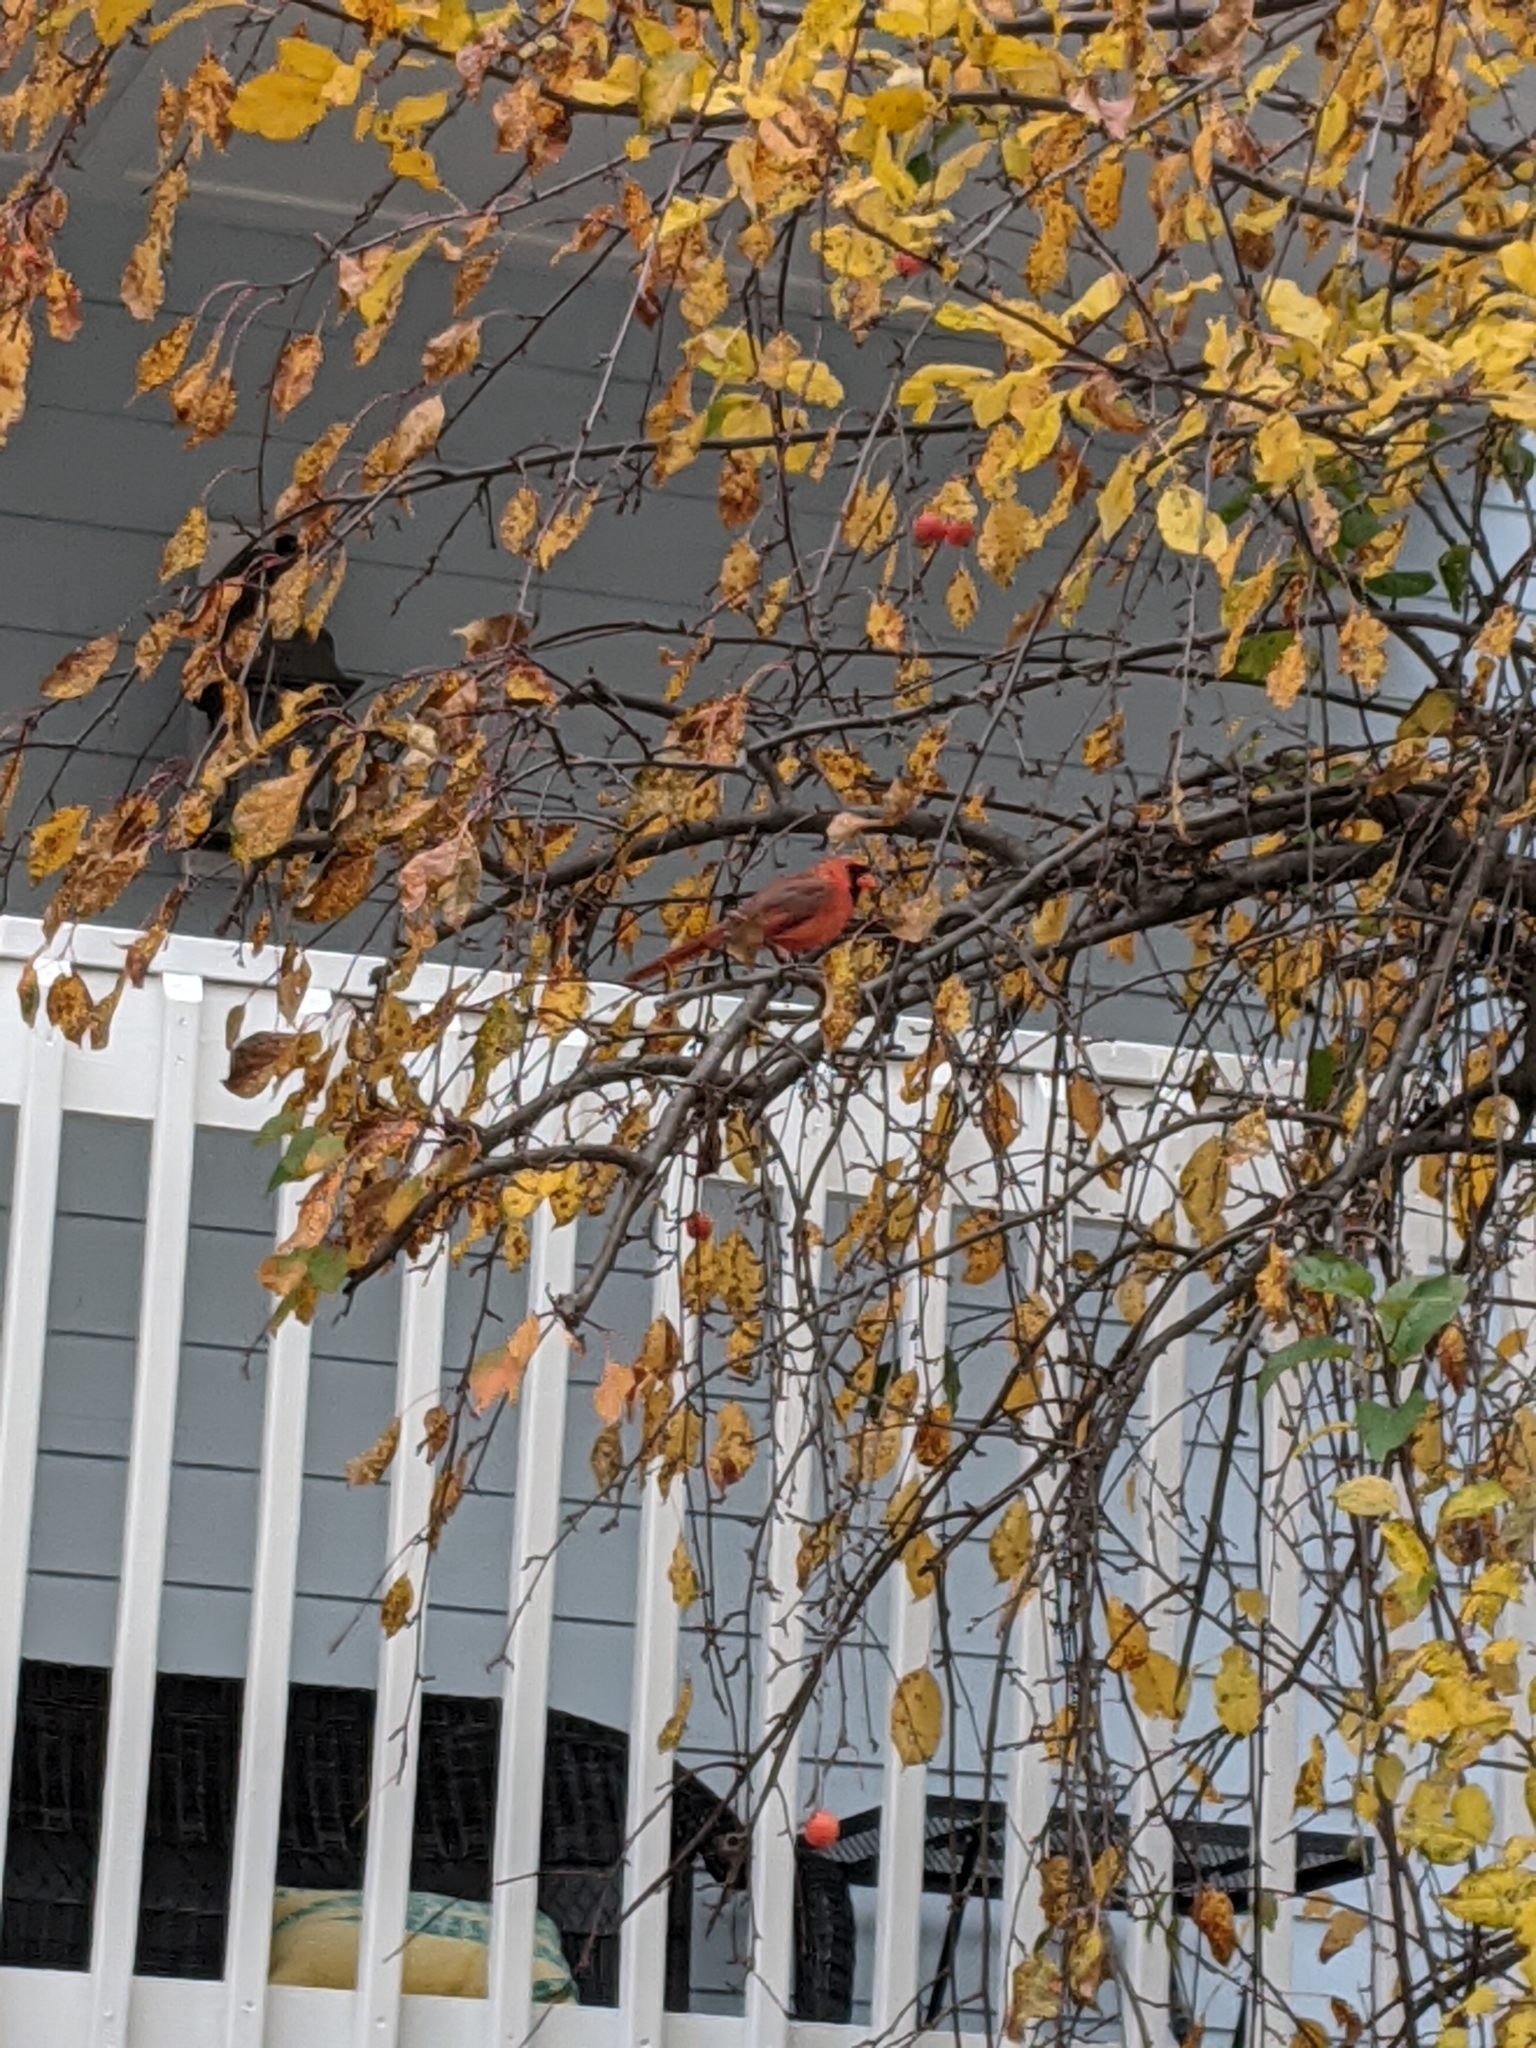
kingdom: Animalia
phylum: Chordata
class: Aves
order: Passeriformes
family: Cardinalidae
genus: Cardinalis
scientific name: Cardinalis cardinalis
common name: Northern cardinal
